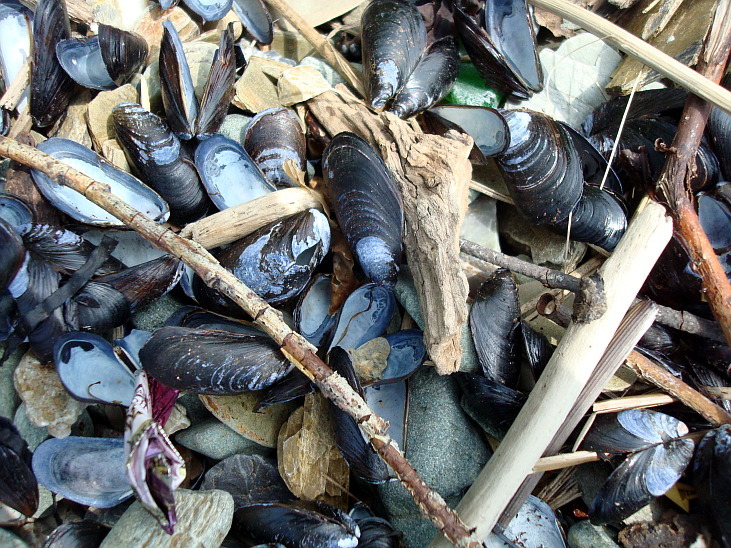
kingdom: Animalia
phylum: Mollusca
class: Bivalvia
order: Mytilida
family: Mytilidae
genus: Mytilus
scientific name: Mytilus trossulus
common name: Northern blue mussel
